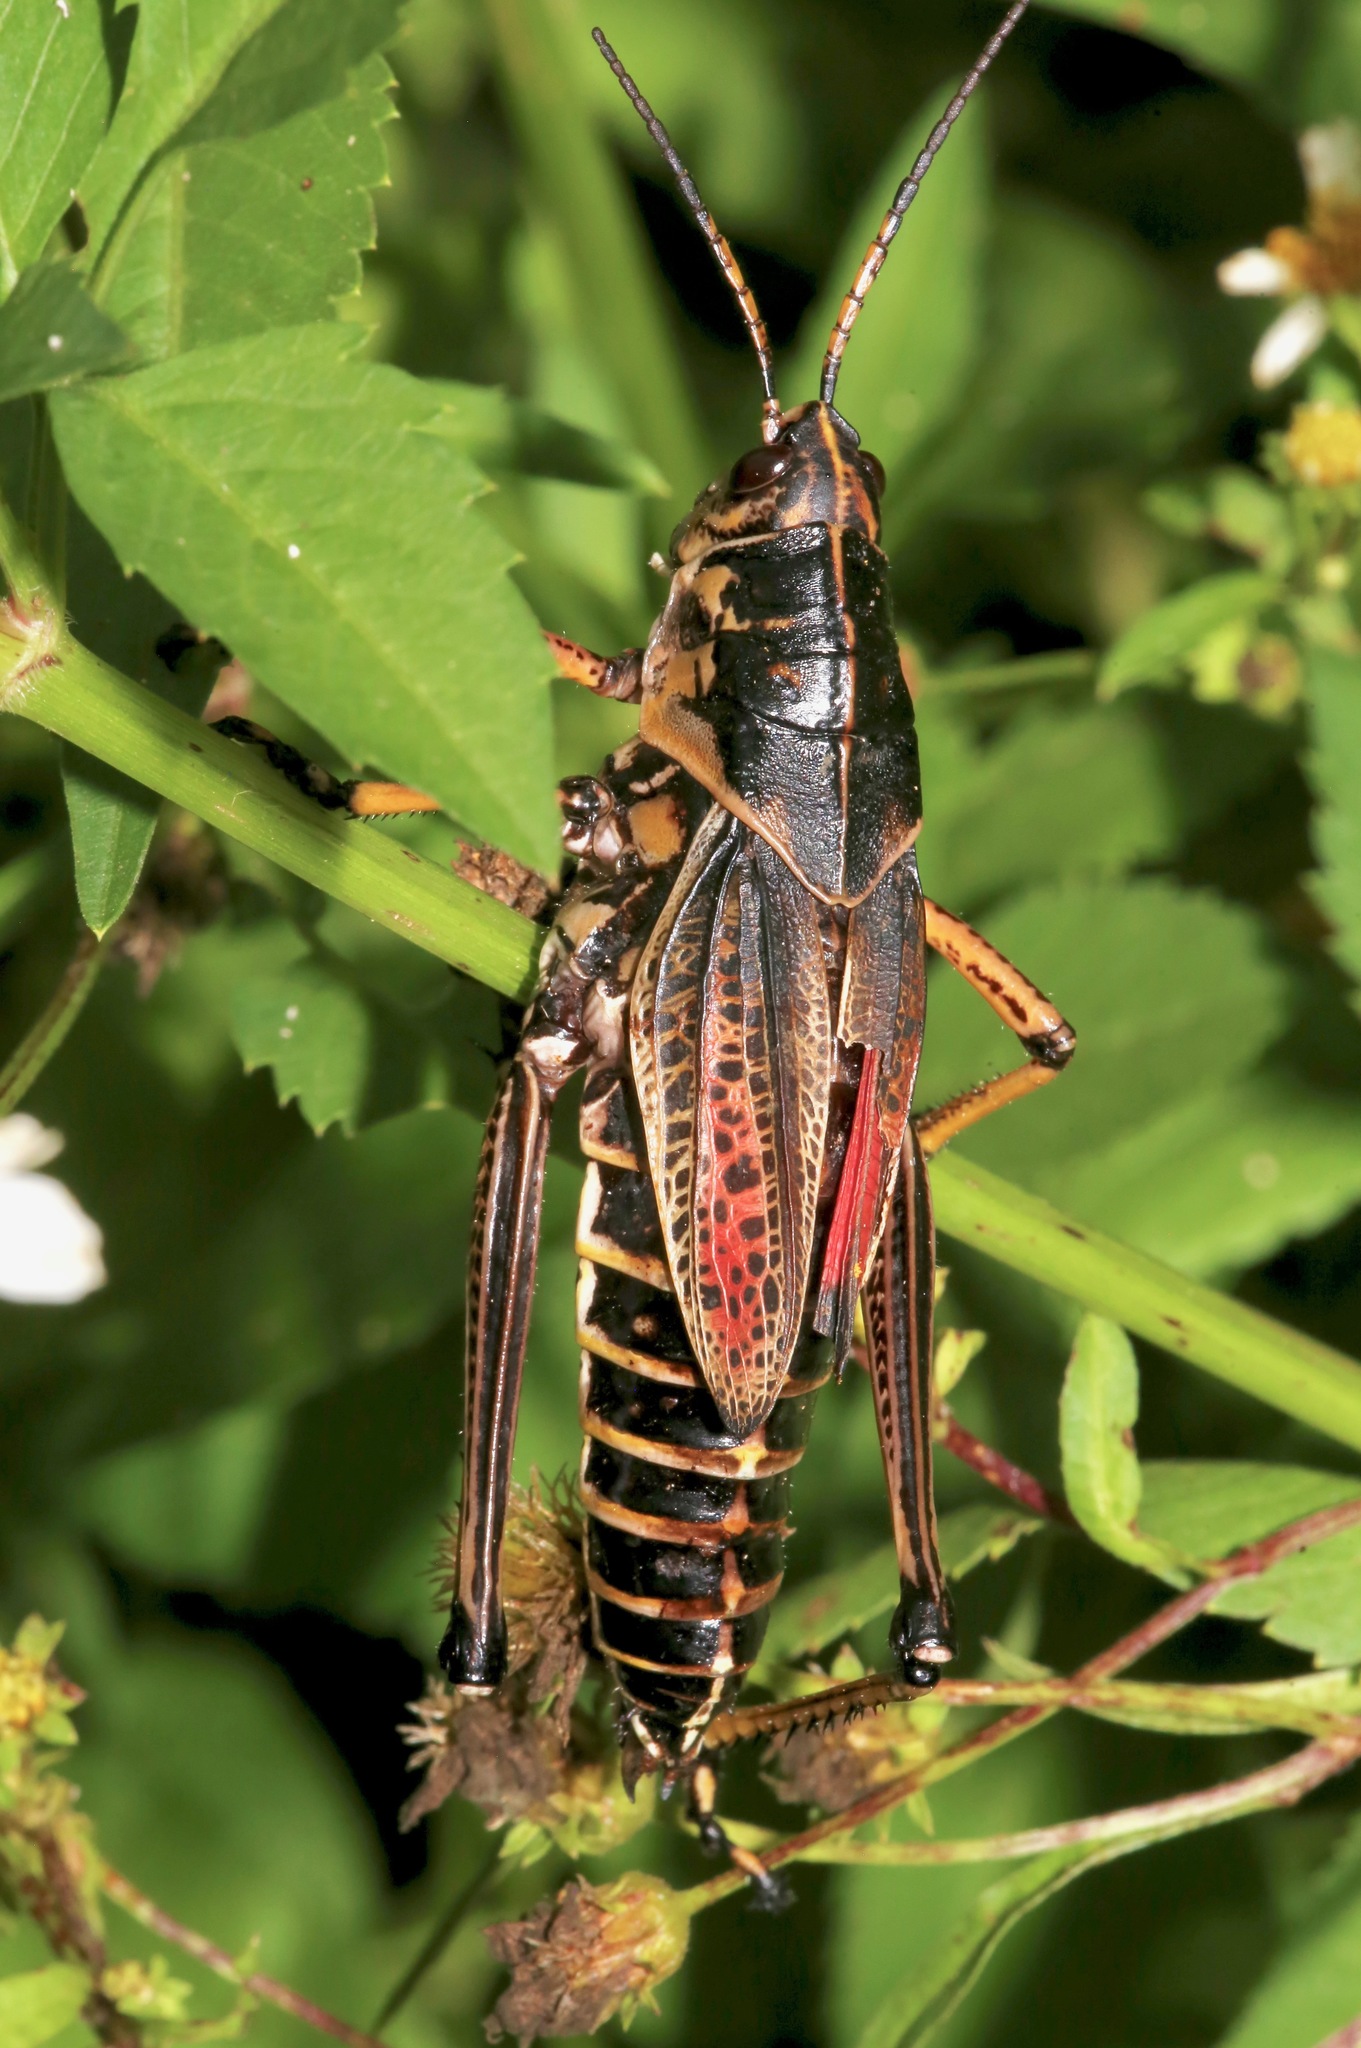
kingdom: Animalia
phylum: Arthropoda
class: Insecta
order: Orthoptera
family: Romaleidae
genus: Romalea
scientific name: Romalea microptera
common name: Eastern lubber grasshopper
